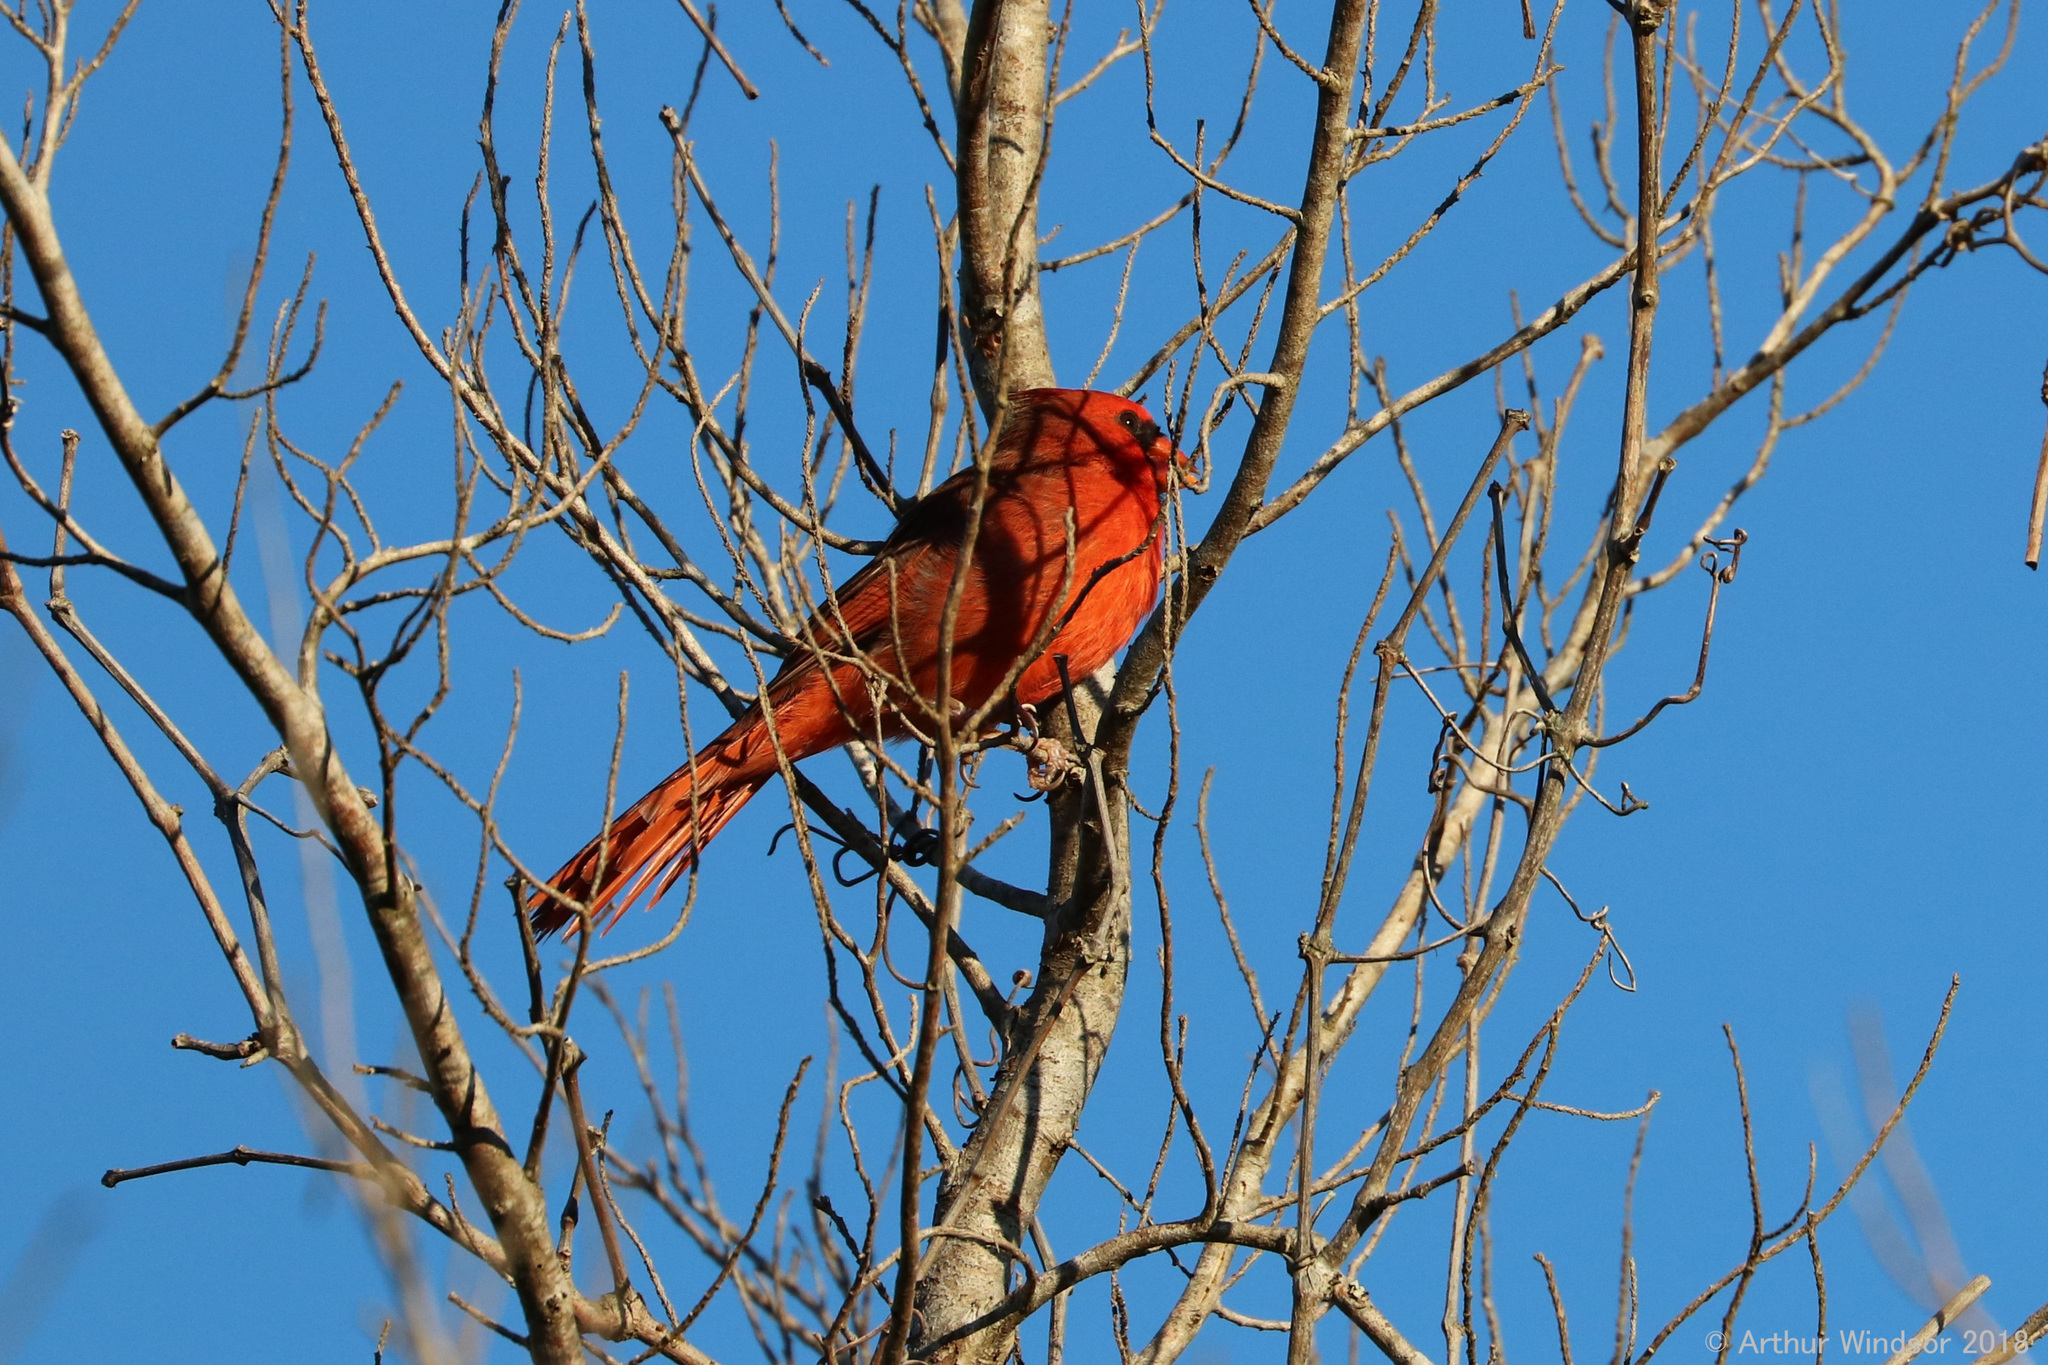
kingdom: Animalia
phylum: Chordata
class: Aves
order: Passeriformes
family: Cardinalidae
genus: Cardinalis
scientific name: Cardinalis cardinalis
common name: Northern cardinal
